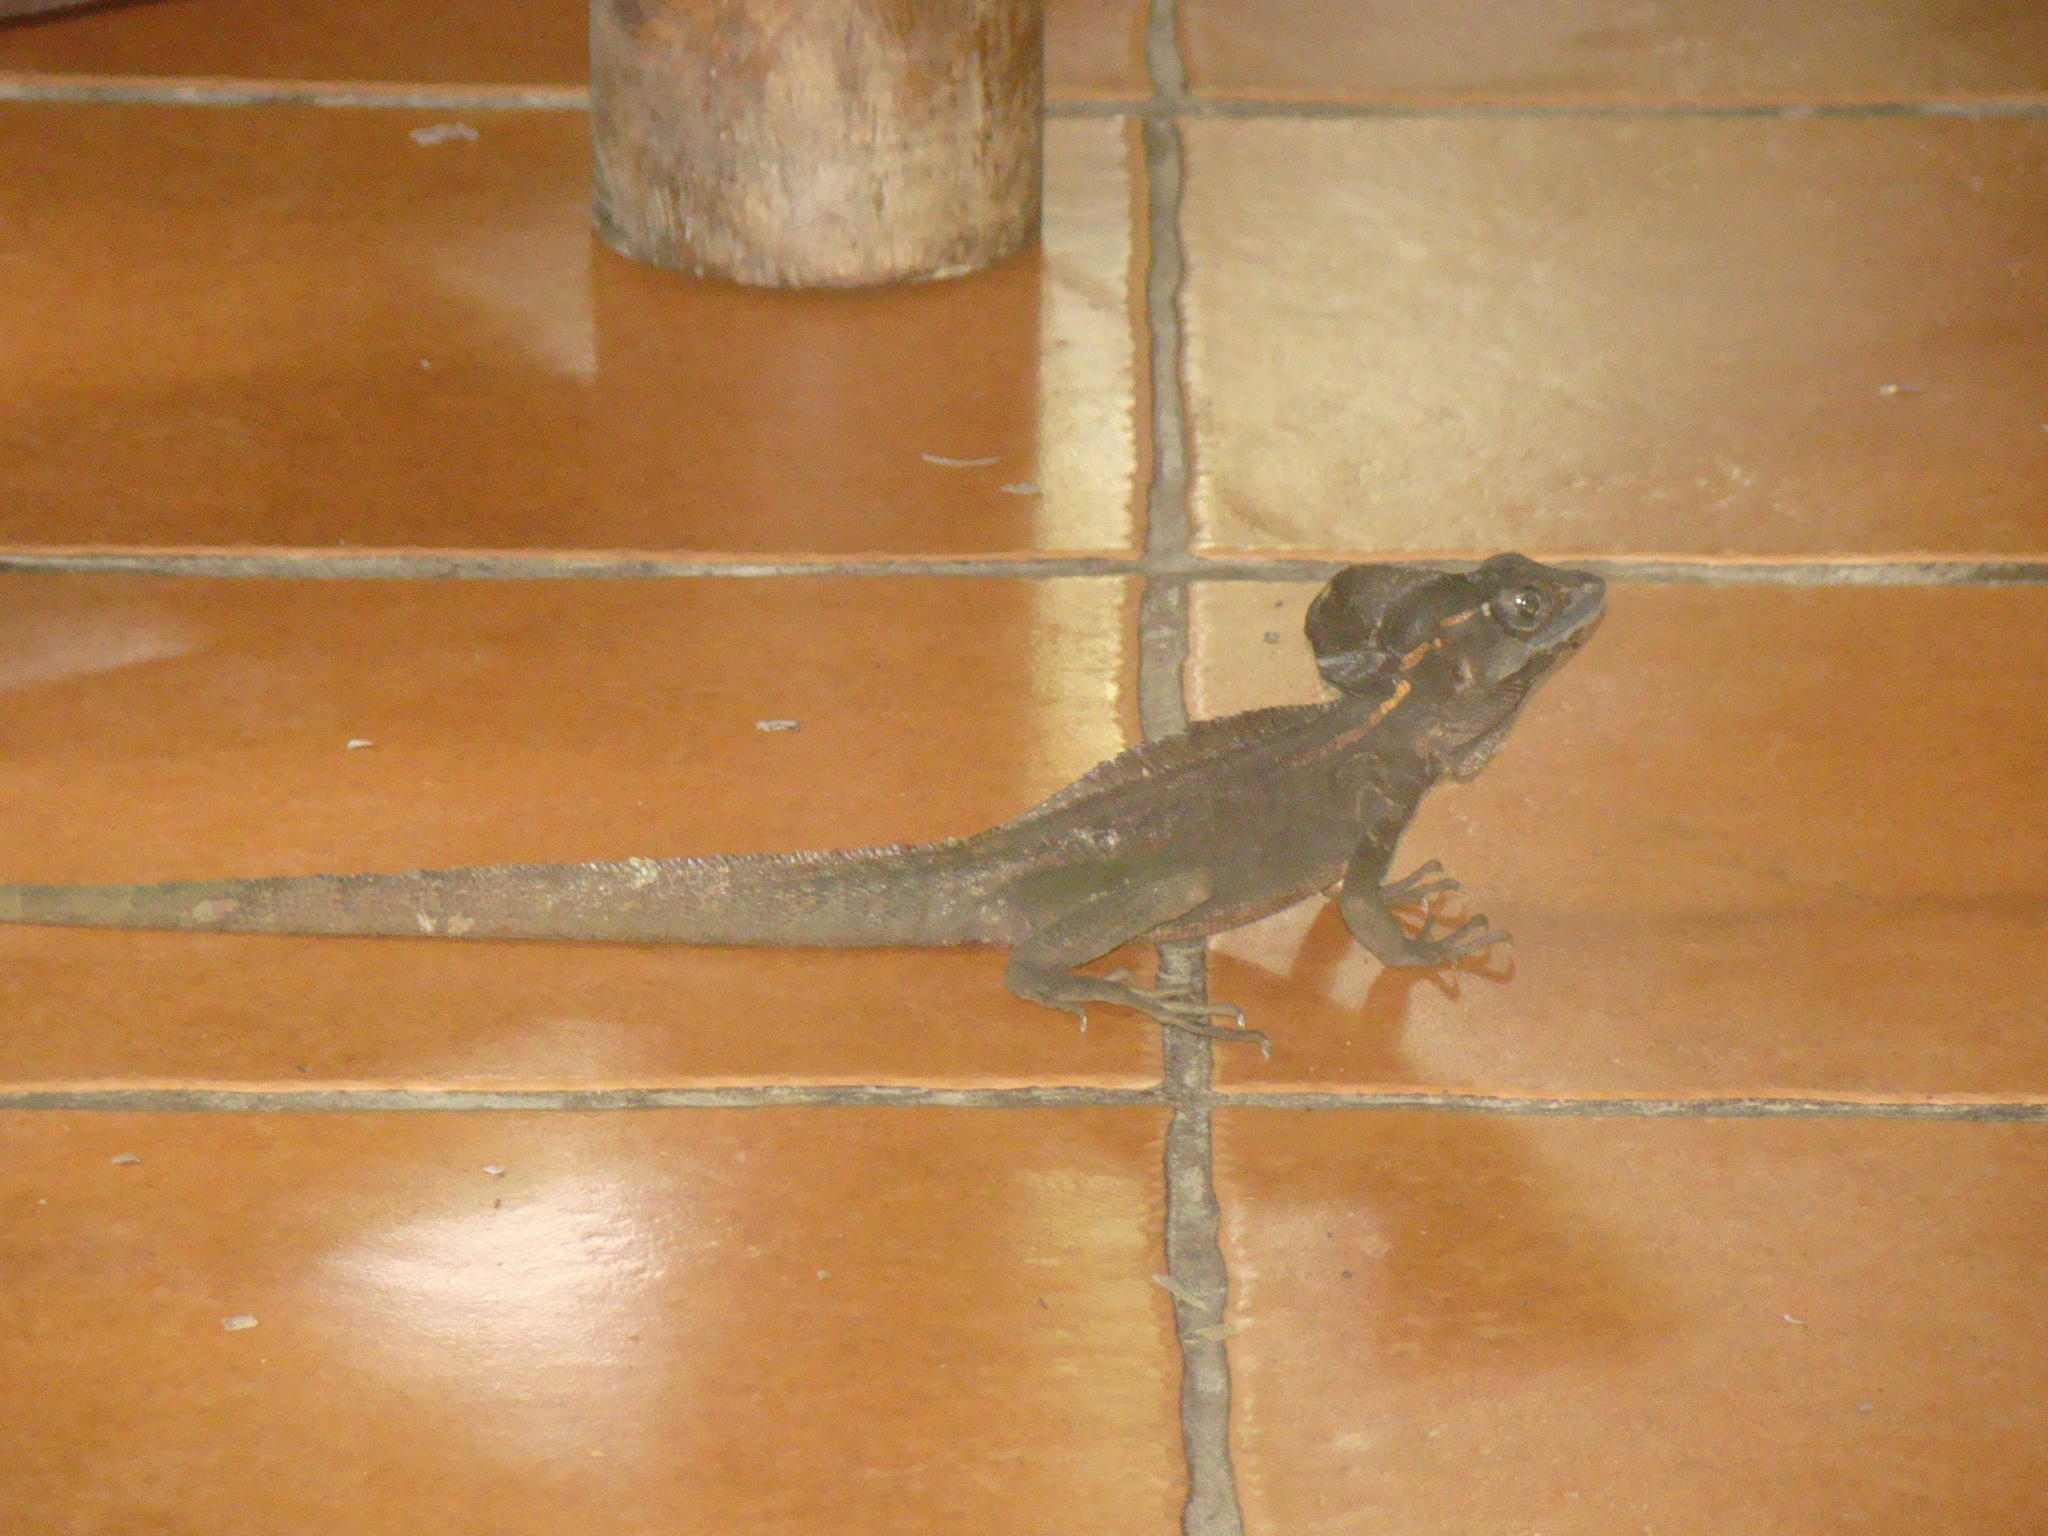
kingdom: Animalia
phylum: Chordata
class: Squamata
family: Corytophanidae
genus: Basiliscus
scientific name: Basiliscus vittatus
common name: Brown basilisk
